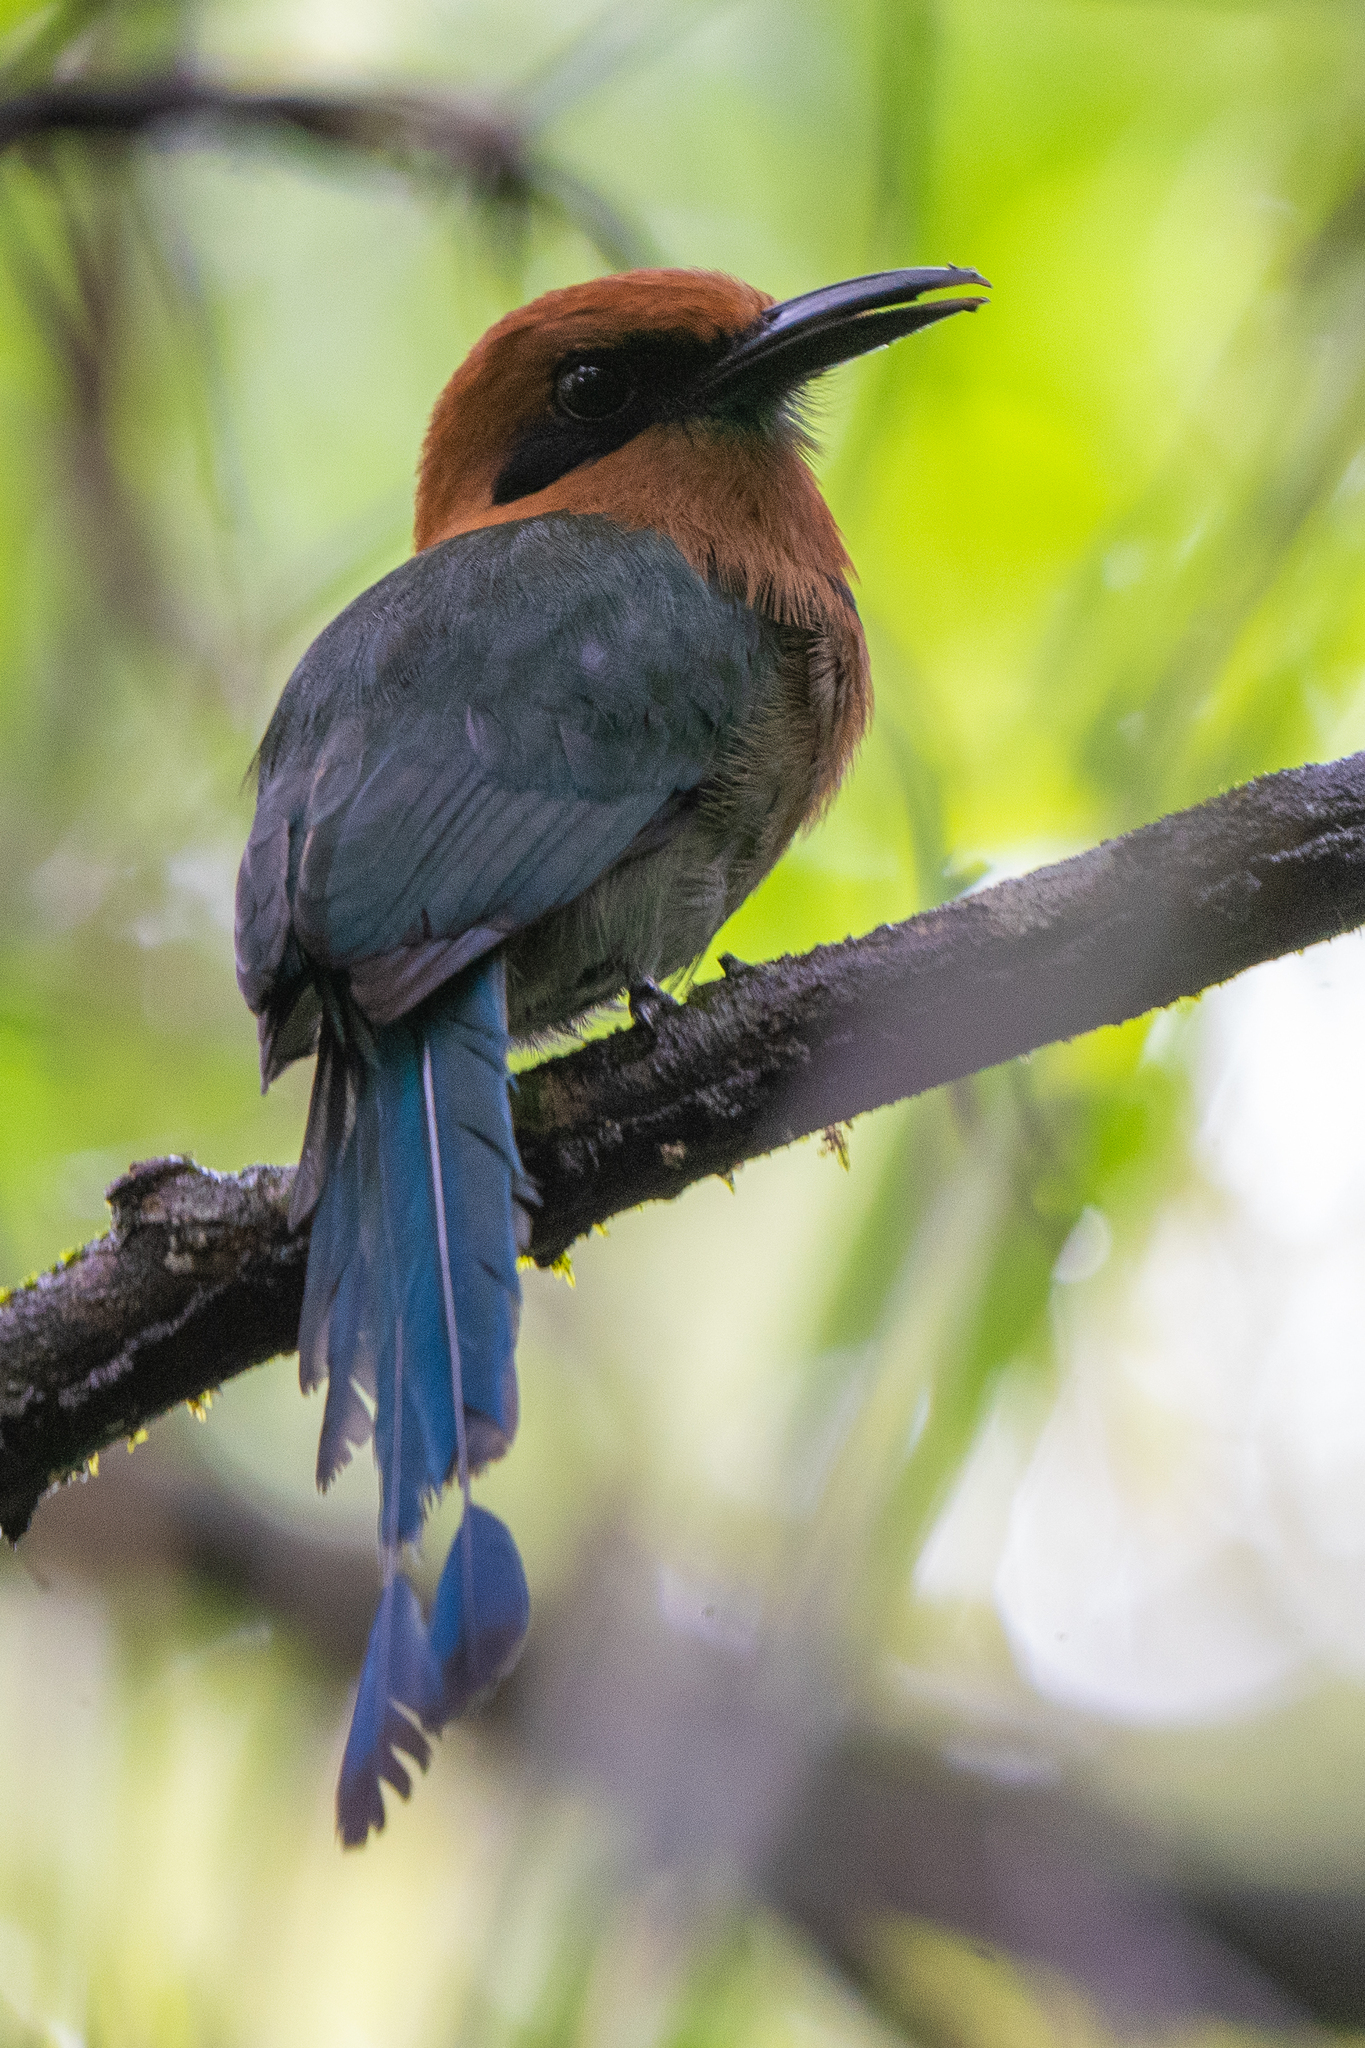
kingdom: Animalia
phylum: Chordata
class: Aves
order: Coraciiformes
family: Momotidae
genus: Electron
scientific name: Electron platyrhynchum
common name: Broad-billed motmot
